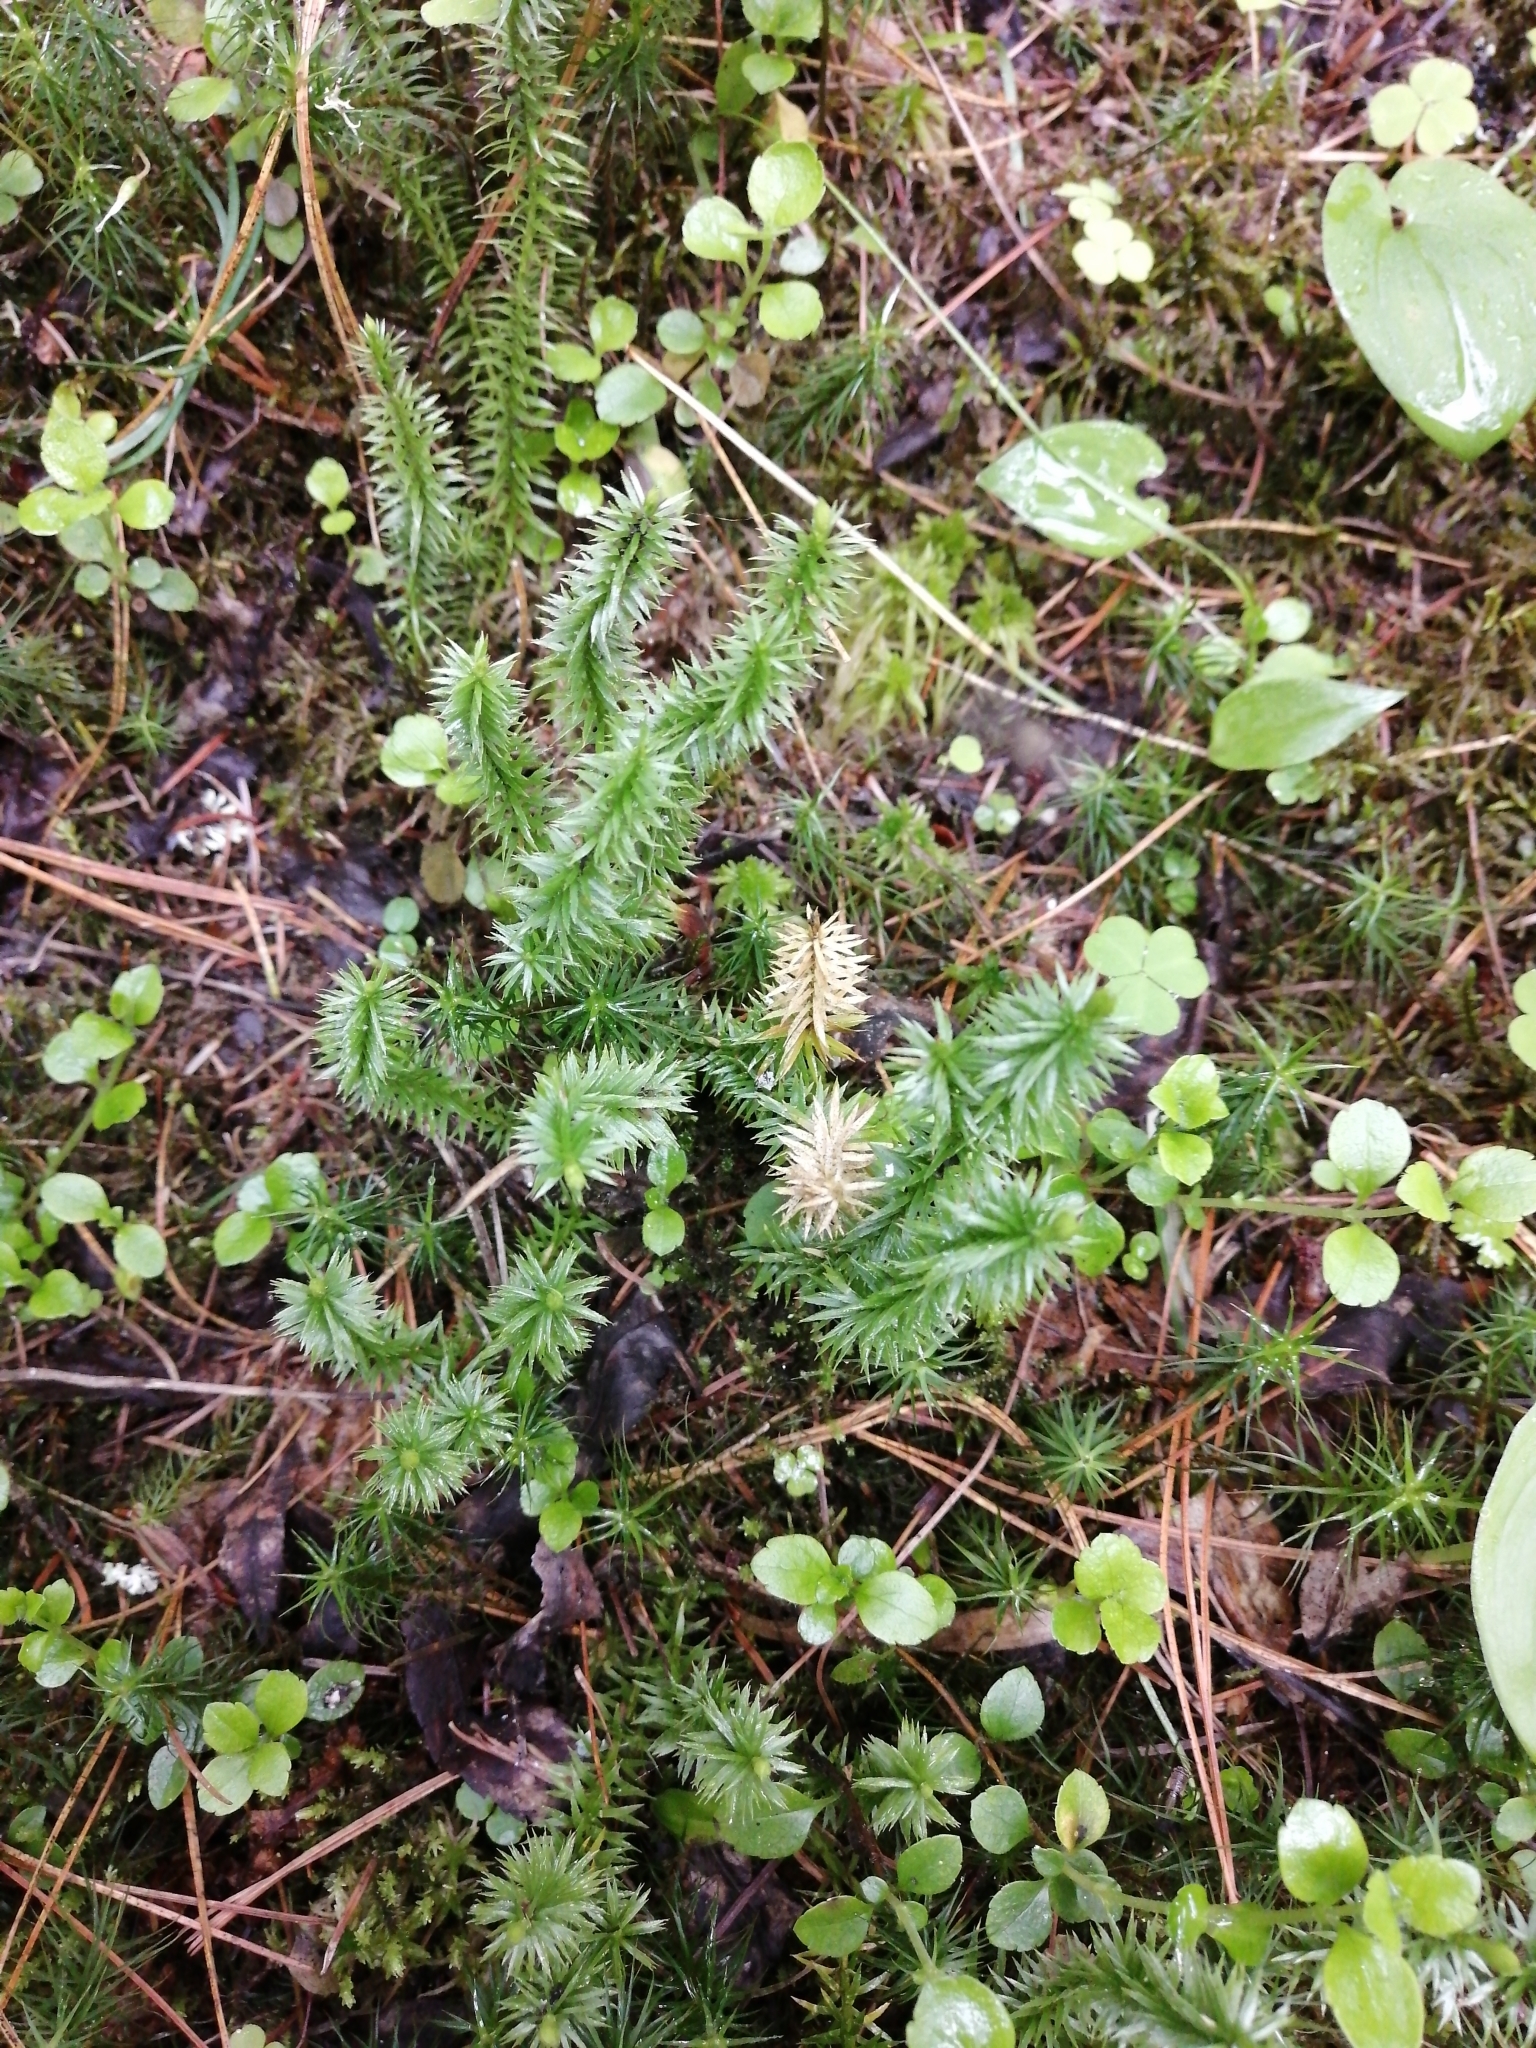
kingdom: Plantae
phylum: Tracheophyta
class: Lycopodiopsida
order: Lycopodiales
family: Lycopodiaceae
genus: Spinulum
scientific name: Spinulum annotinum
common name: Interrupted club-moss
